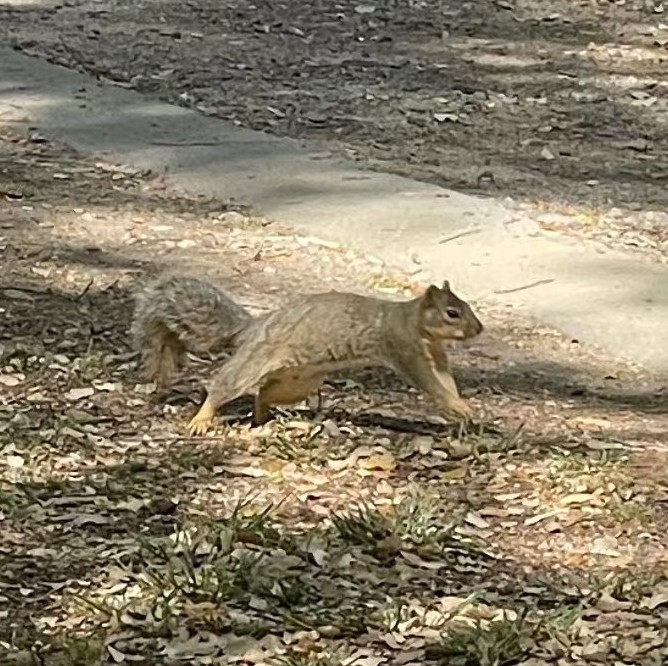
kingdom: Animalia
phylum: Chordata
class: Mammalia
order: Rodentia
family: Sciuridae
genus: Sciurus
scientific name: Sciurus niger
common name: Fox squirrel
